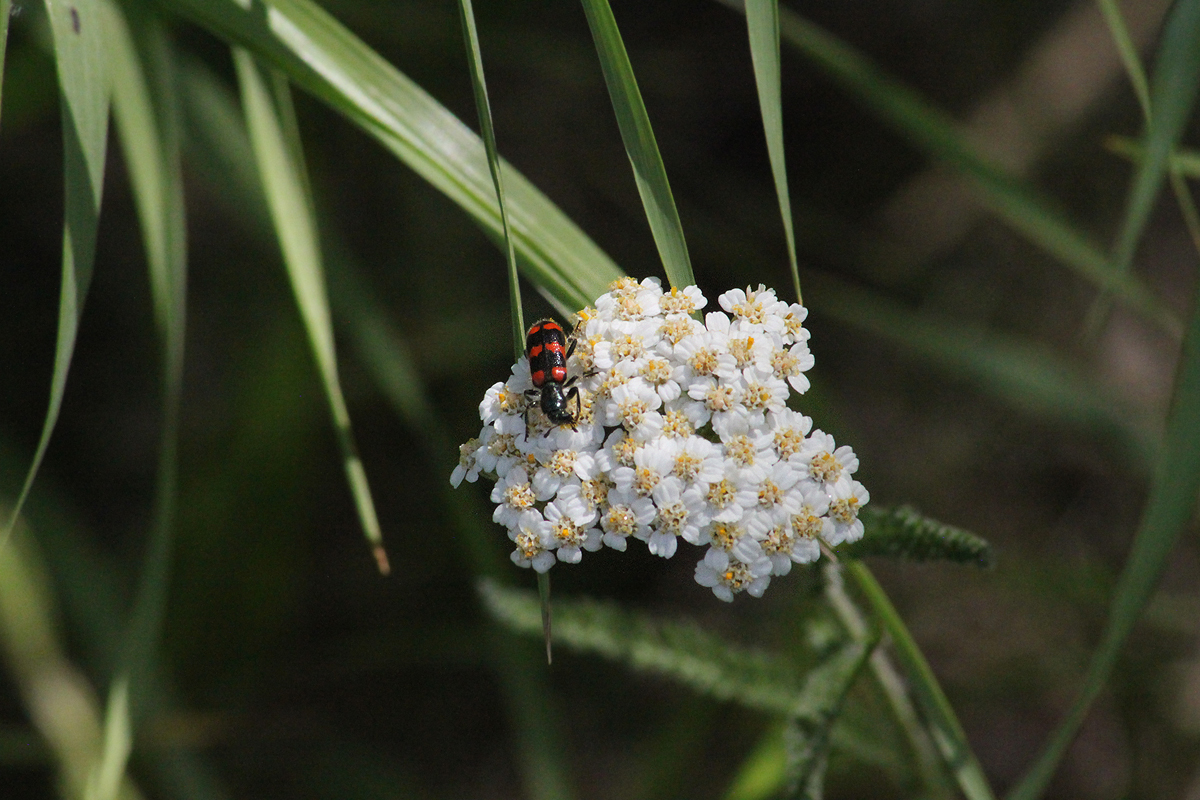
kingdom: Animalia
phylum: Arthropoda
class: Insecta
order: Coleoptera
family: Cleridae
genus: Trichodes
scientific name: Trichodes nutalli
